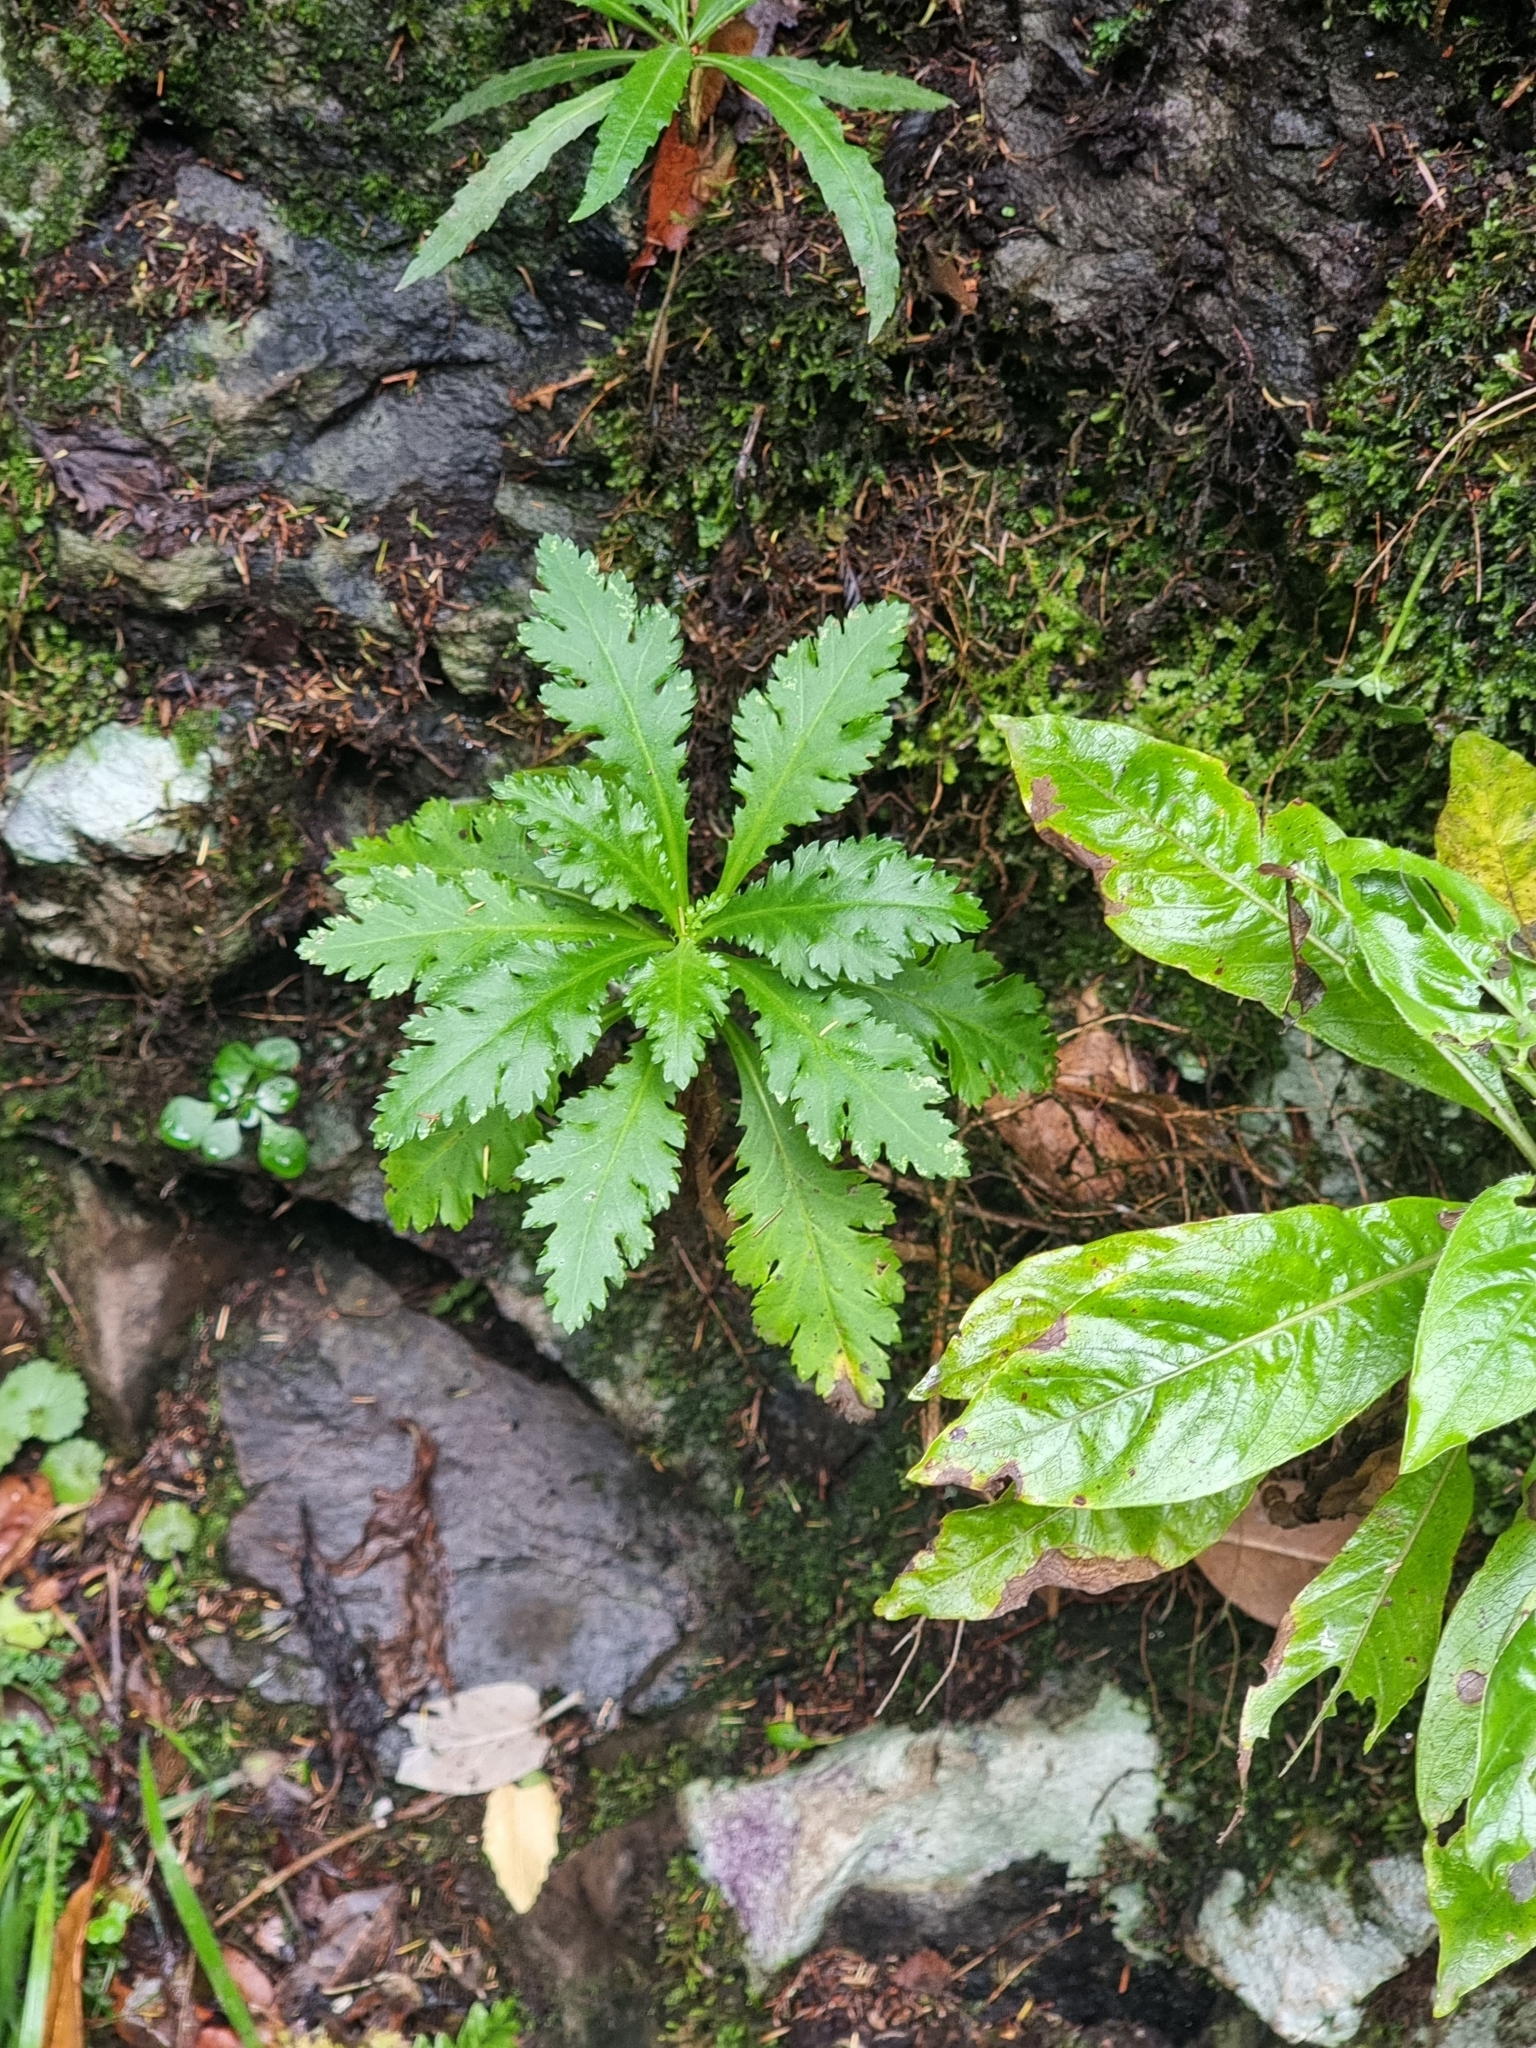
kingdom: Plantae
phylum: Tracheophyta
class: Magnoliopsida
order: Asterales
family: Asteraceae
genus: Argyranthemum
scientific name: Argyranthemum pinnatifidum
